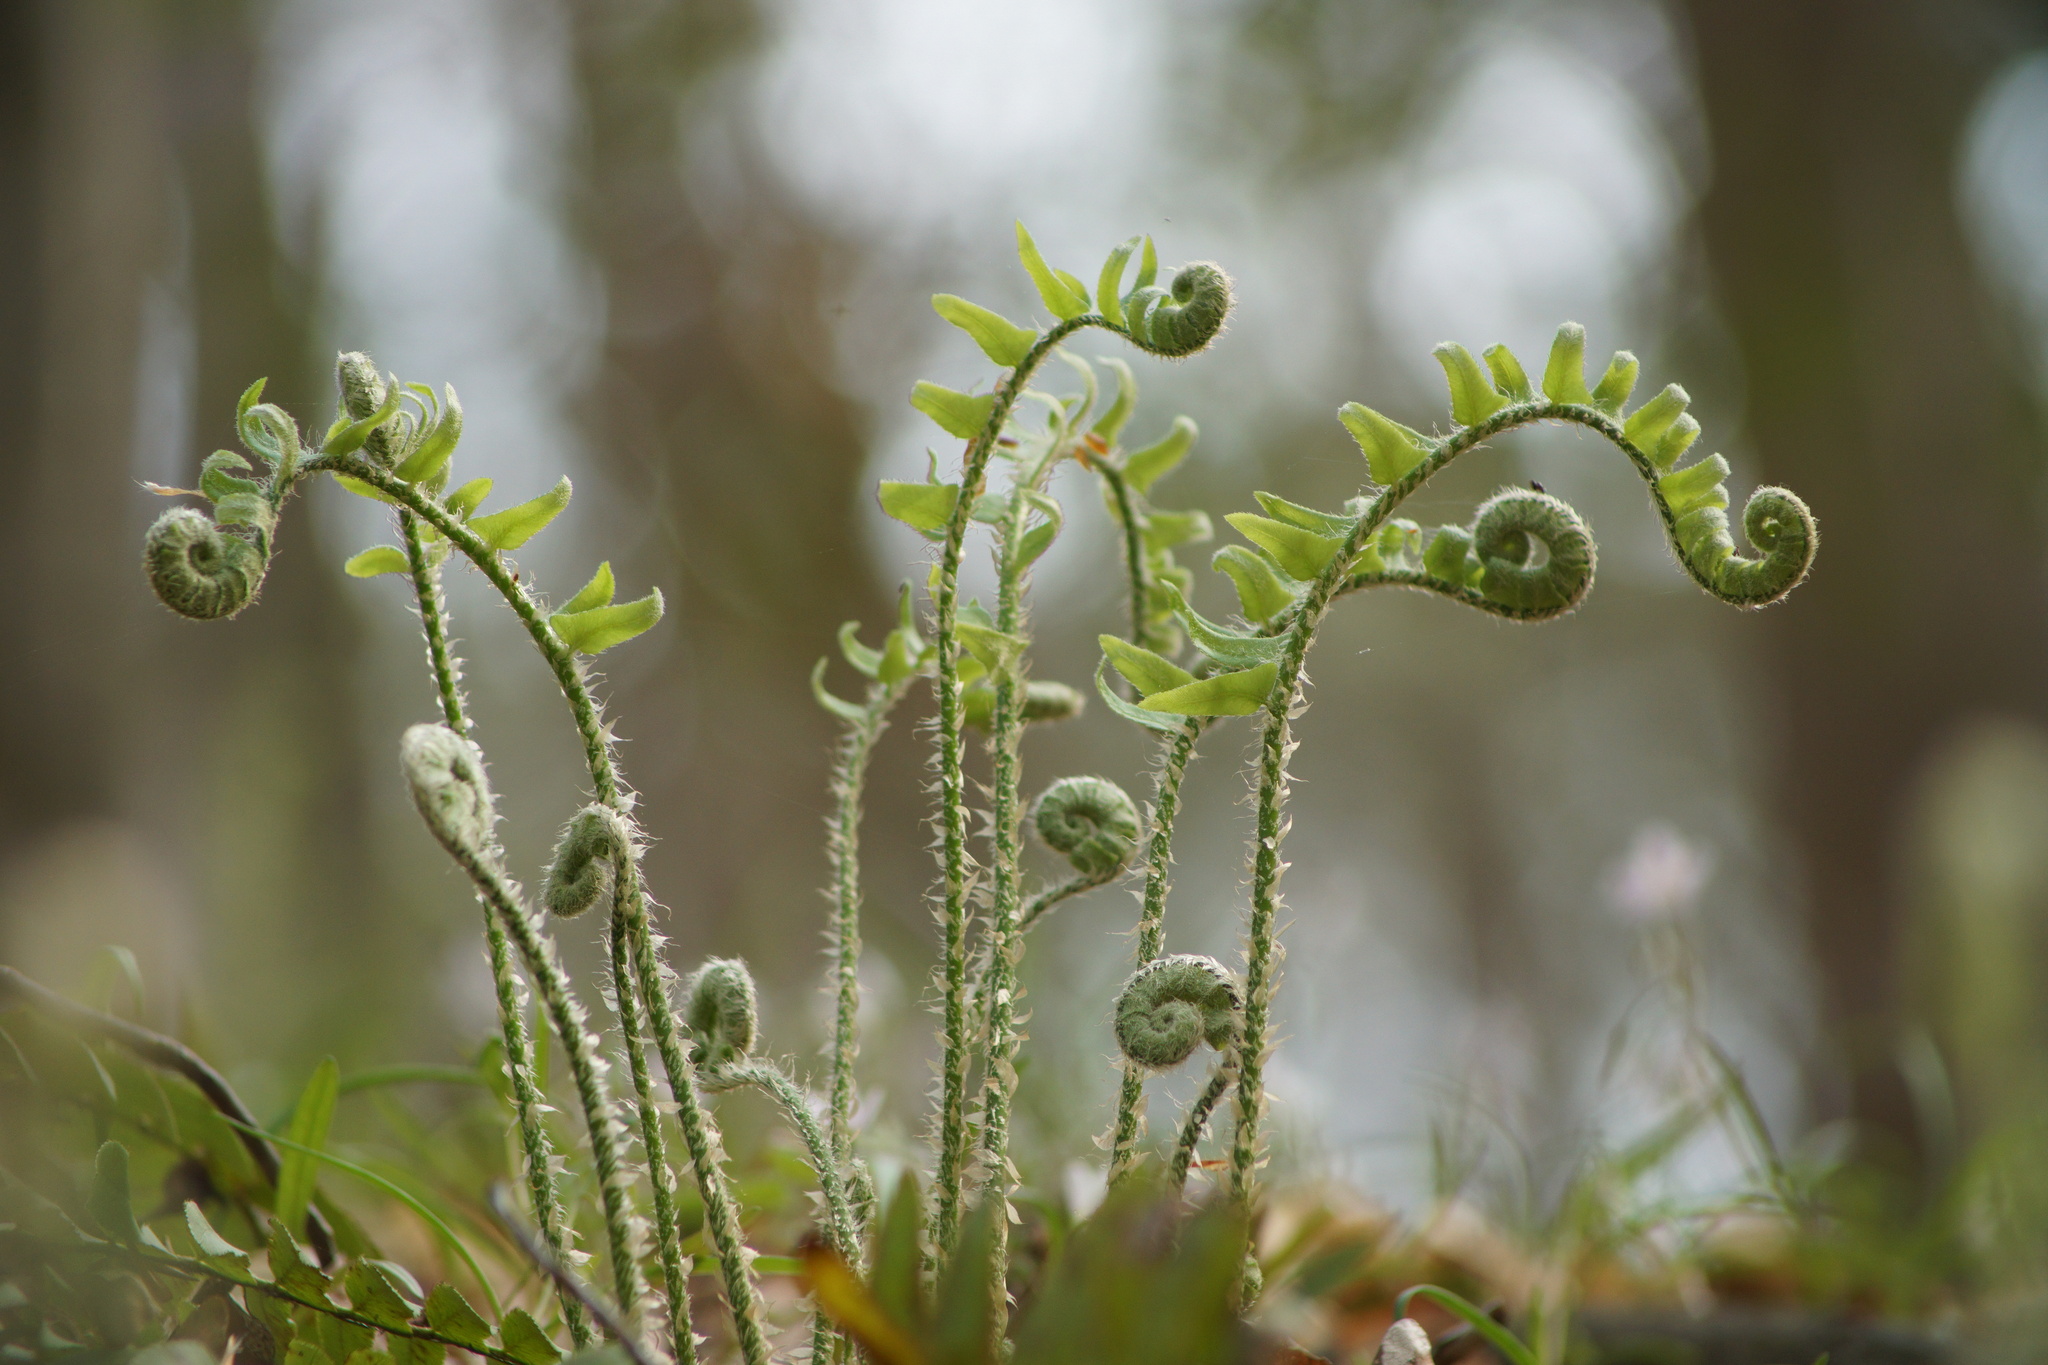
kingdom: Plantae
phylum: Tracheophyta
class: Polypodiopsida
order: Polypodiales
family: Dryopteridaceae
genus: Polystichum
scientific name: Polystichum acrostichoides
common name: Christmas fern
